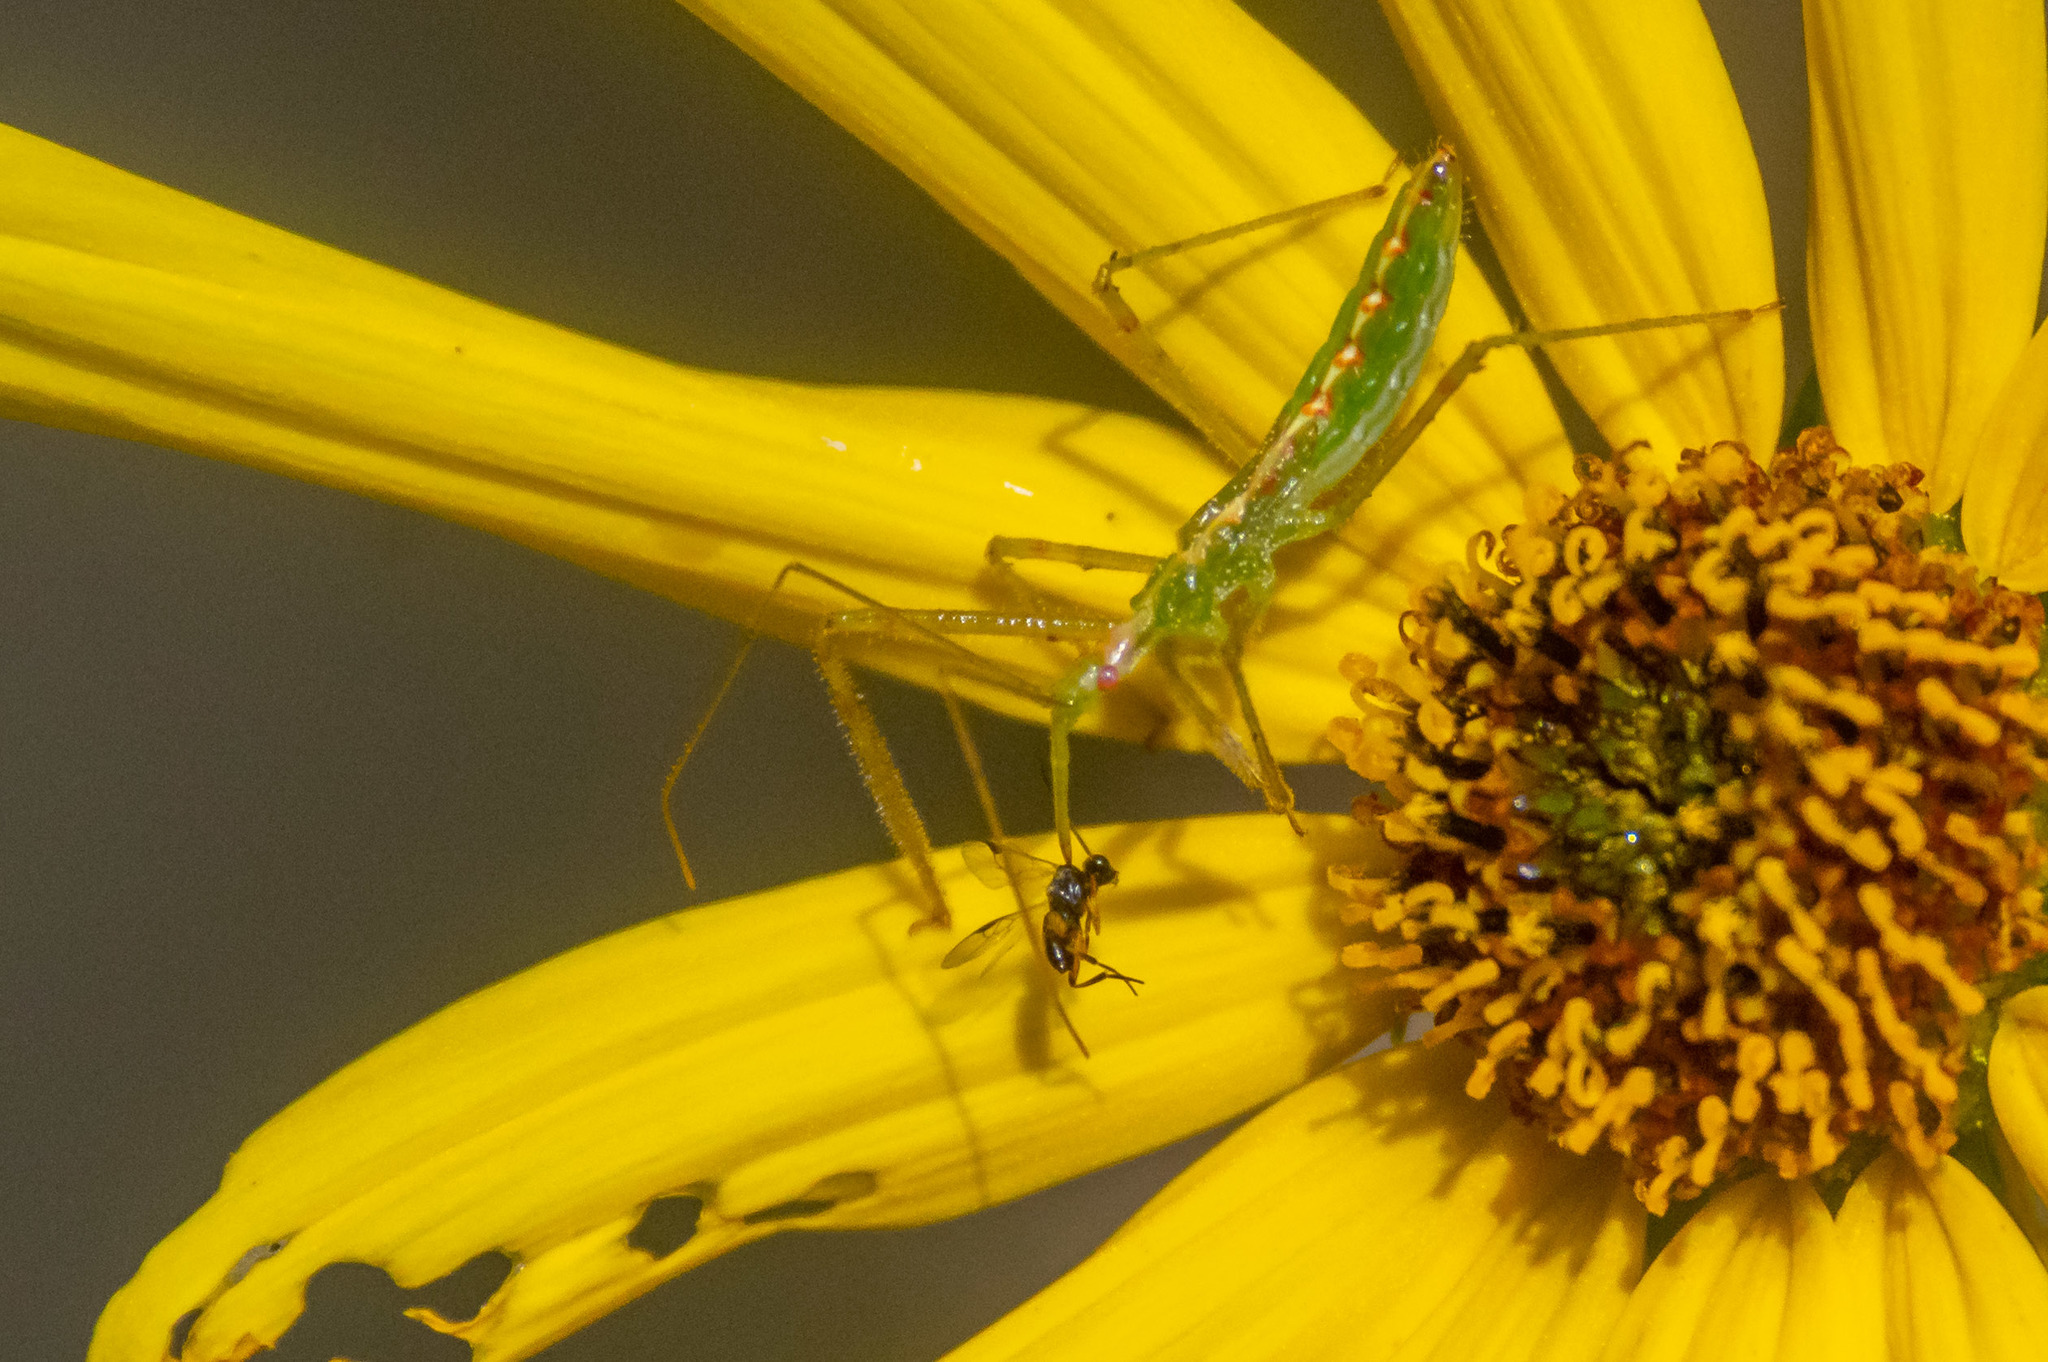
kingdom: Animalia
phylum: Arthropoda
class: Insecta
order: Hemiptera
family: Reduviidae
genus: Zelus
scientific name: Zelus luridus
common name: Pale green assassin bug
